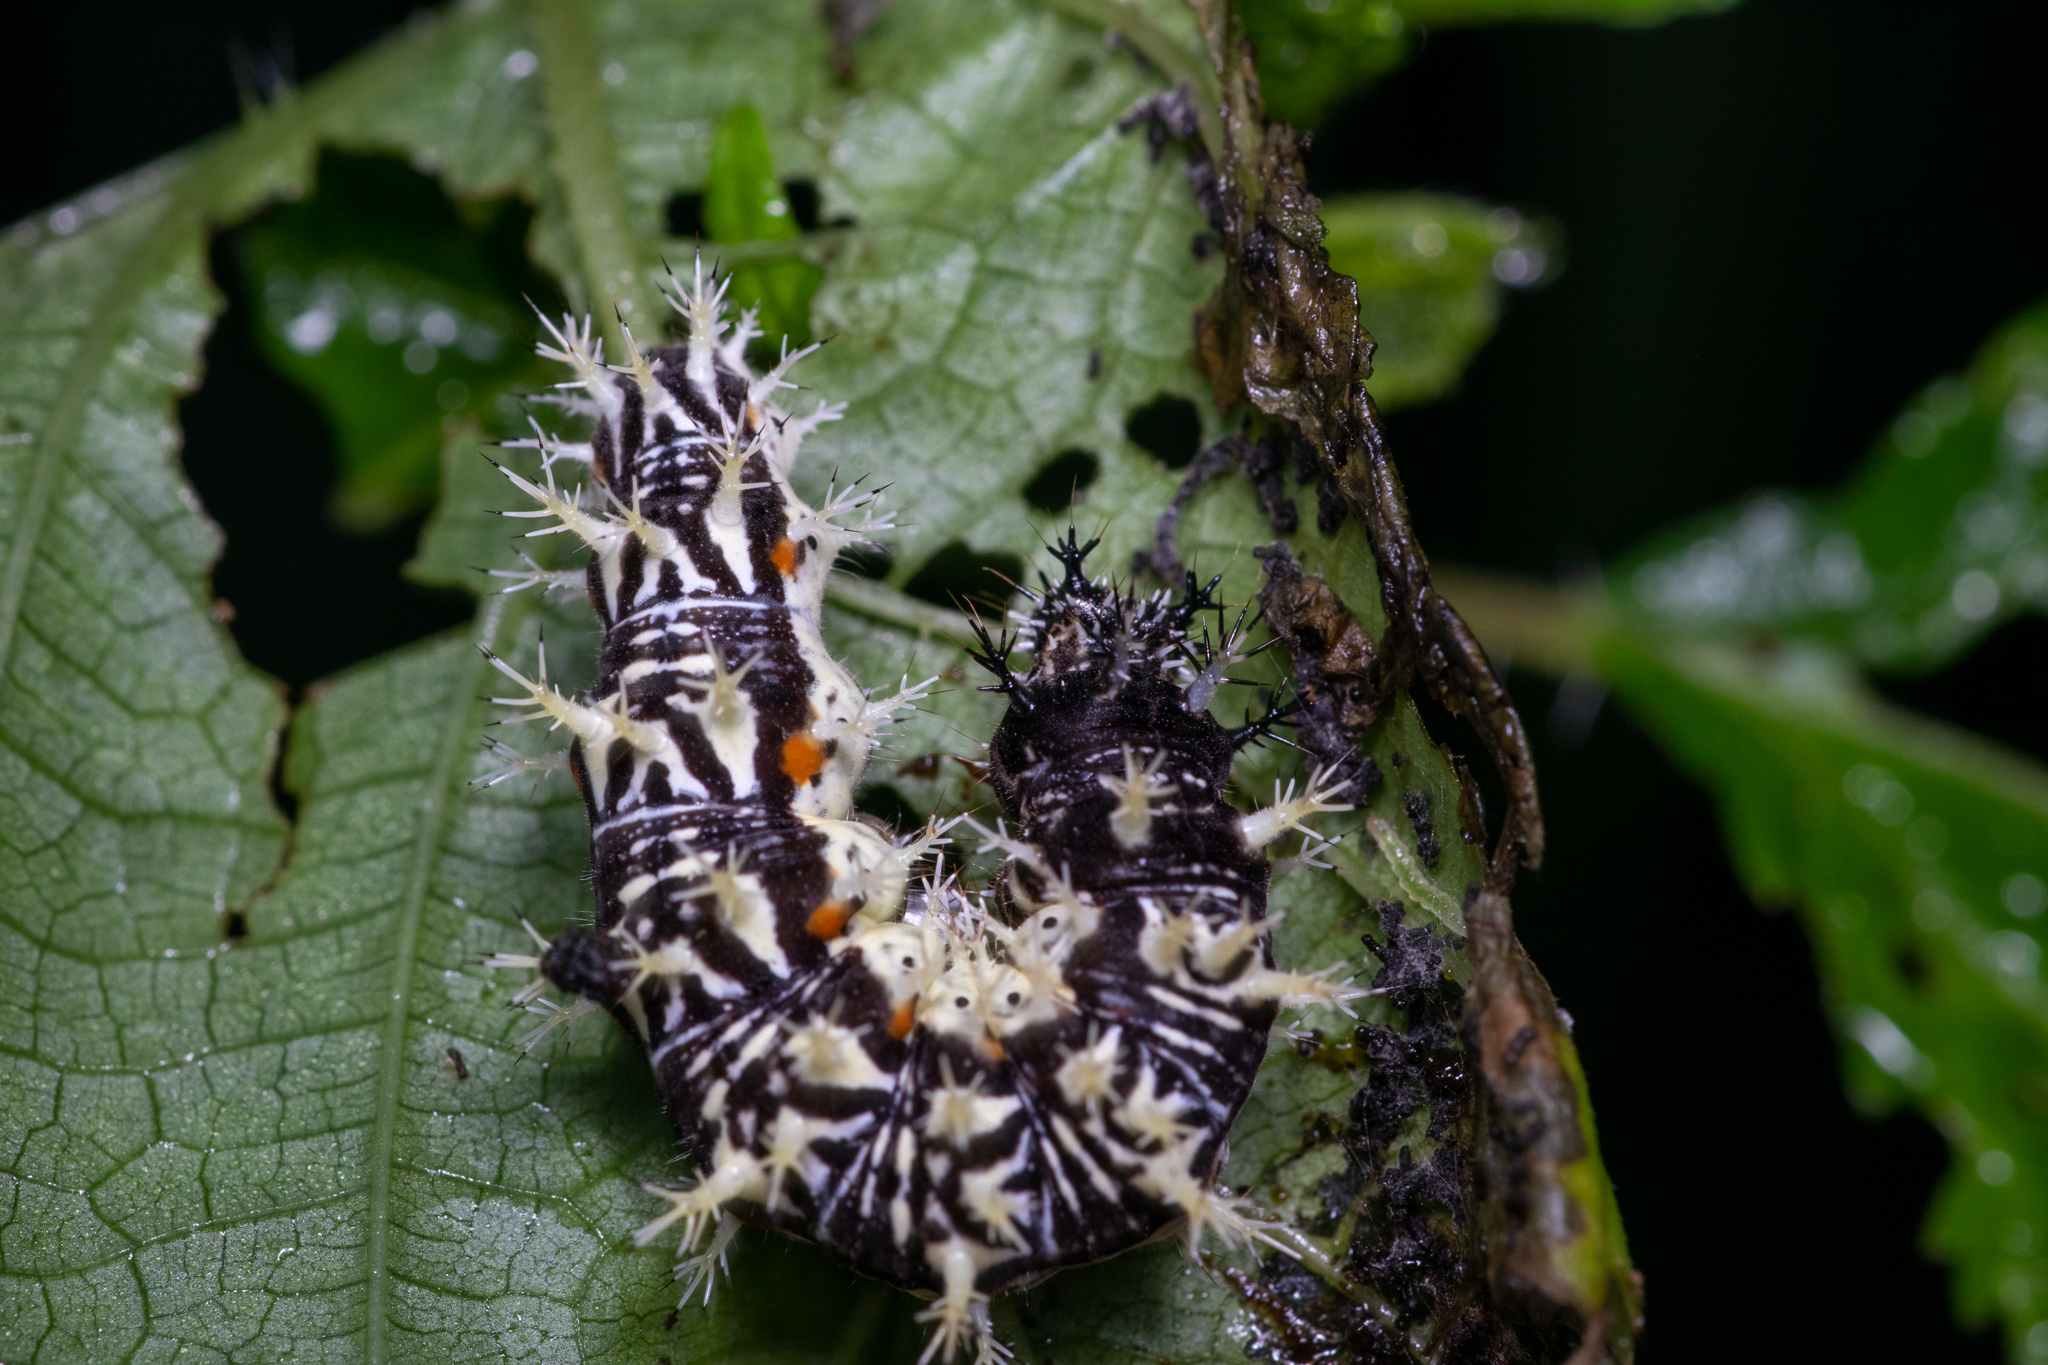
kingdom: Animalia
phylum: Arthropoda
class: Insecta
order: Lepidoptera
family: Nymphalidae
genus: Polygonia
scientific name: Polygonia comma
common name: Eastern comma
